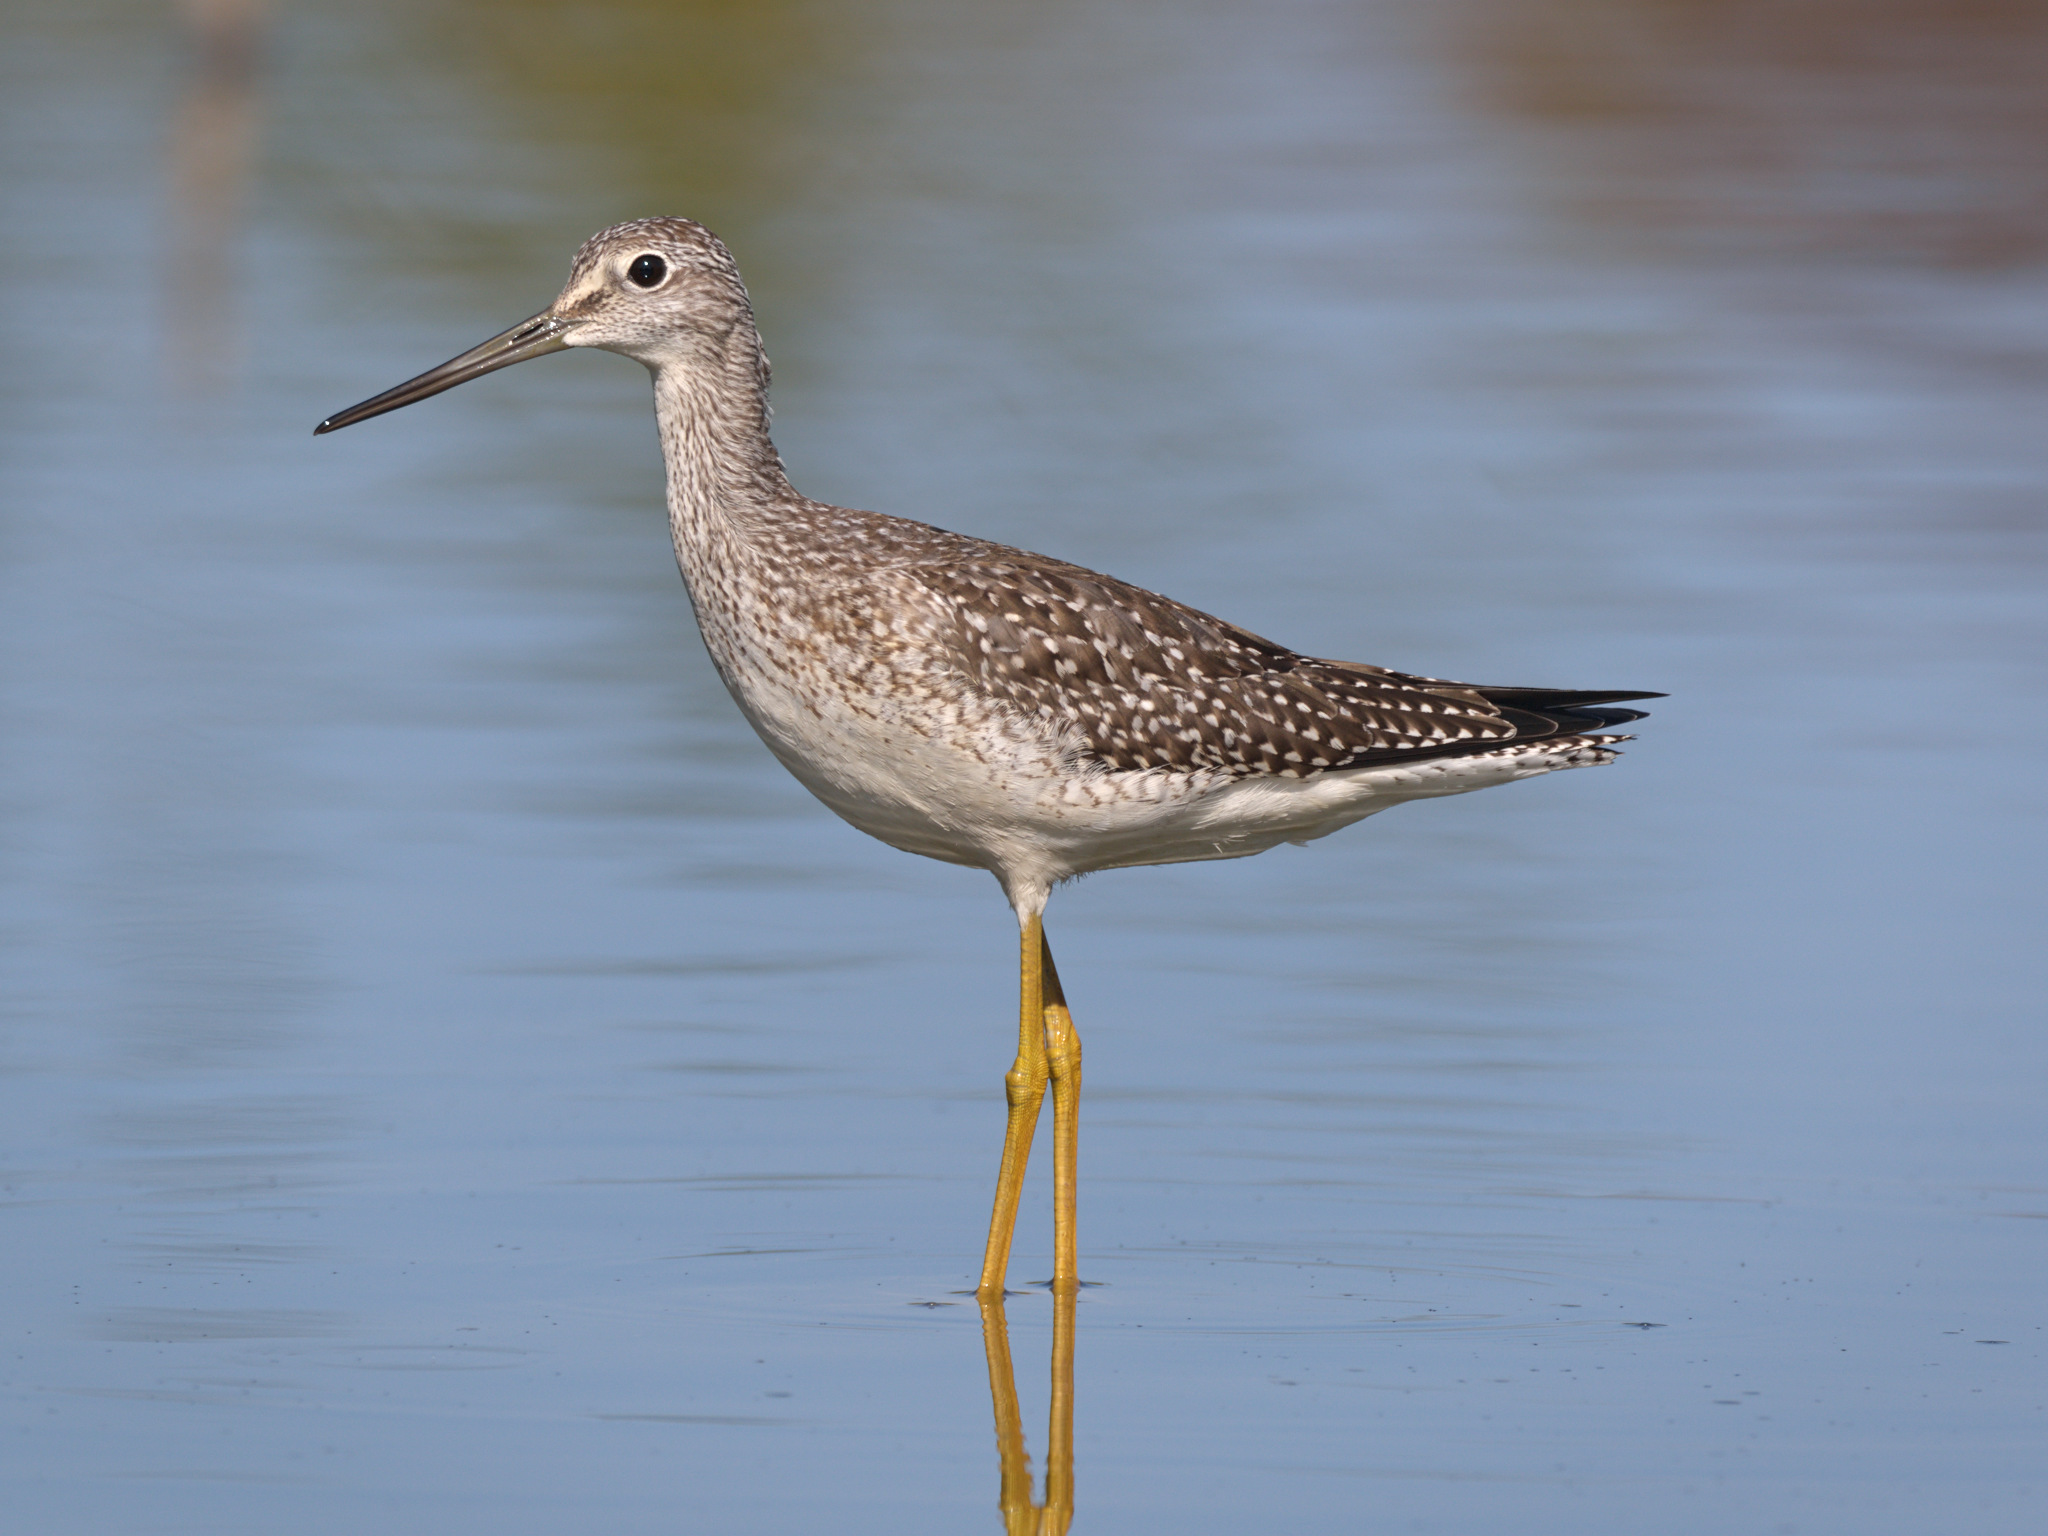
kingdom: Animalia
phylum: Chordata
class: Aves
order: Charadriiformes
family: Scolopacidae
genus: Tringa
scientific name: Tringa melanoleuca
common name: Greater yellowlegs
